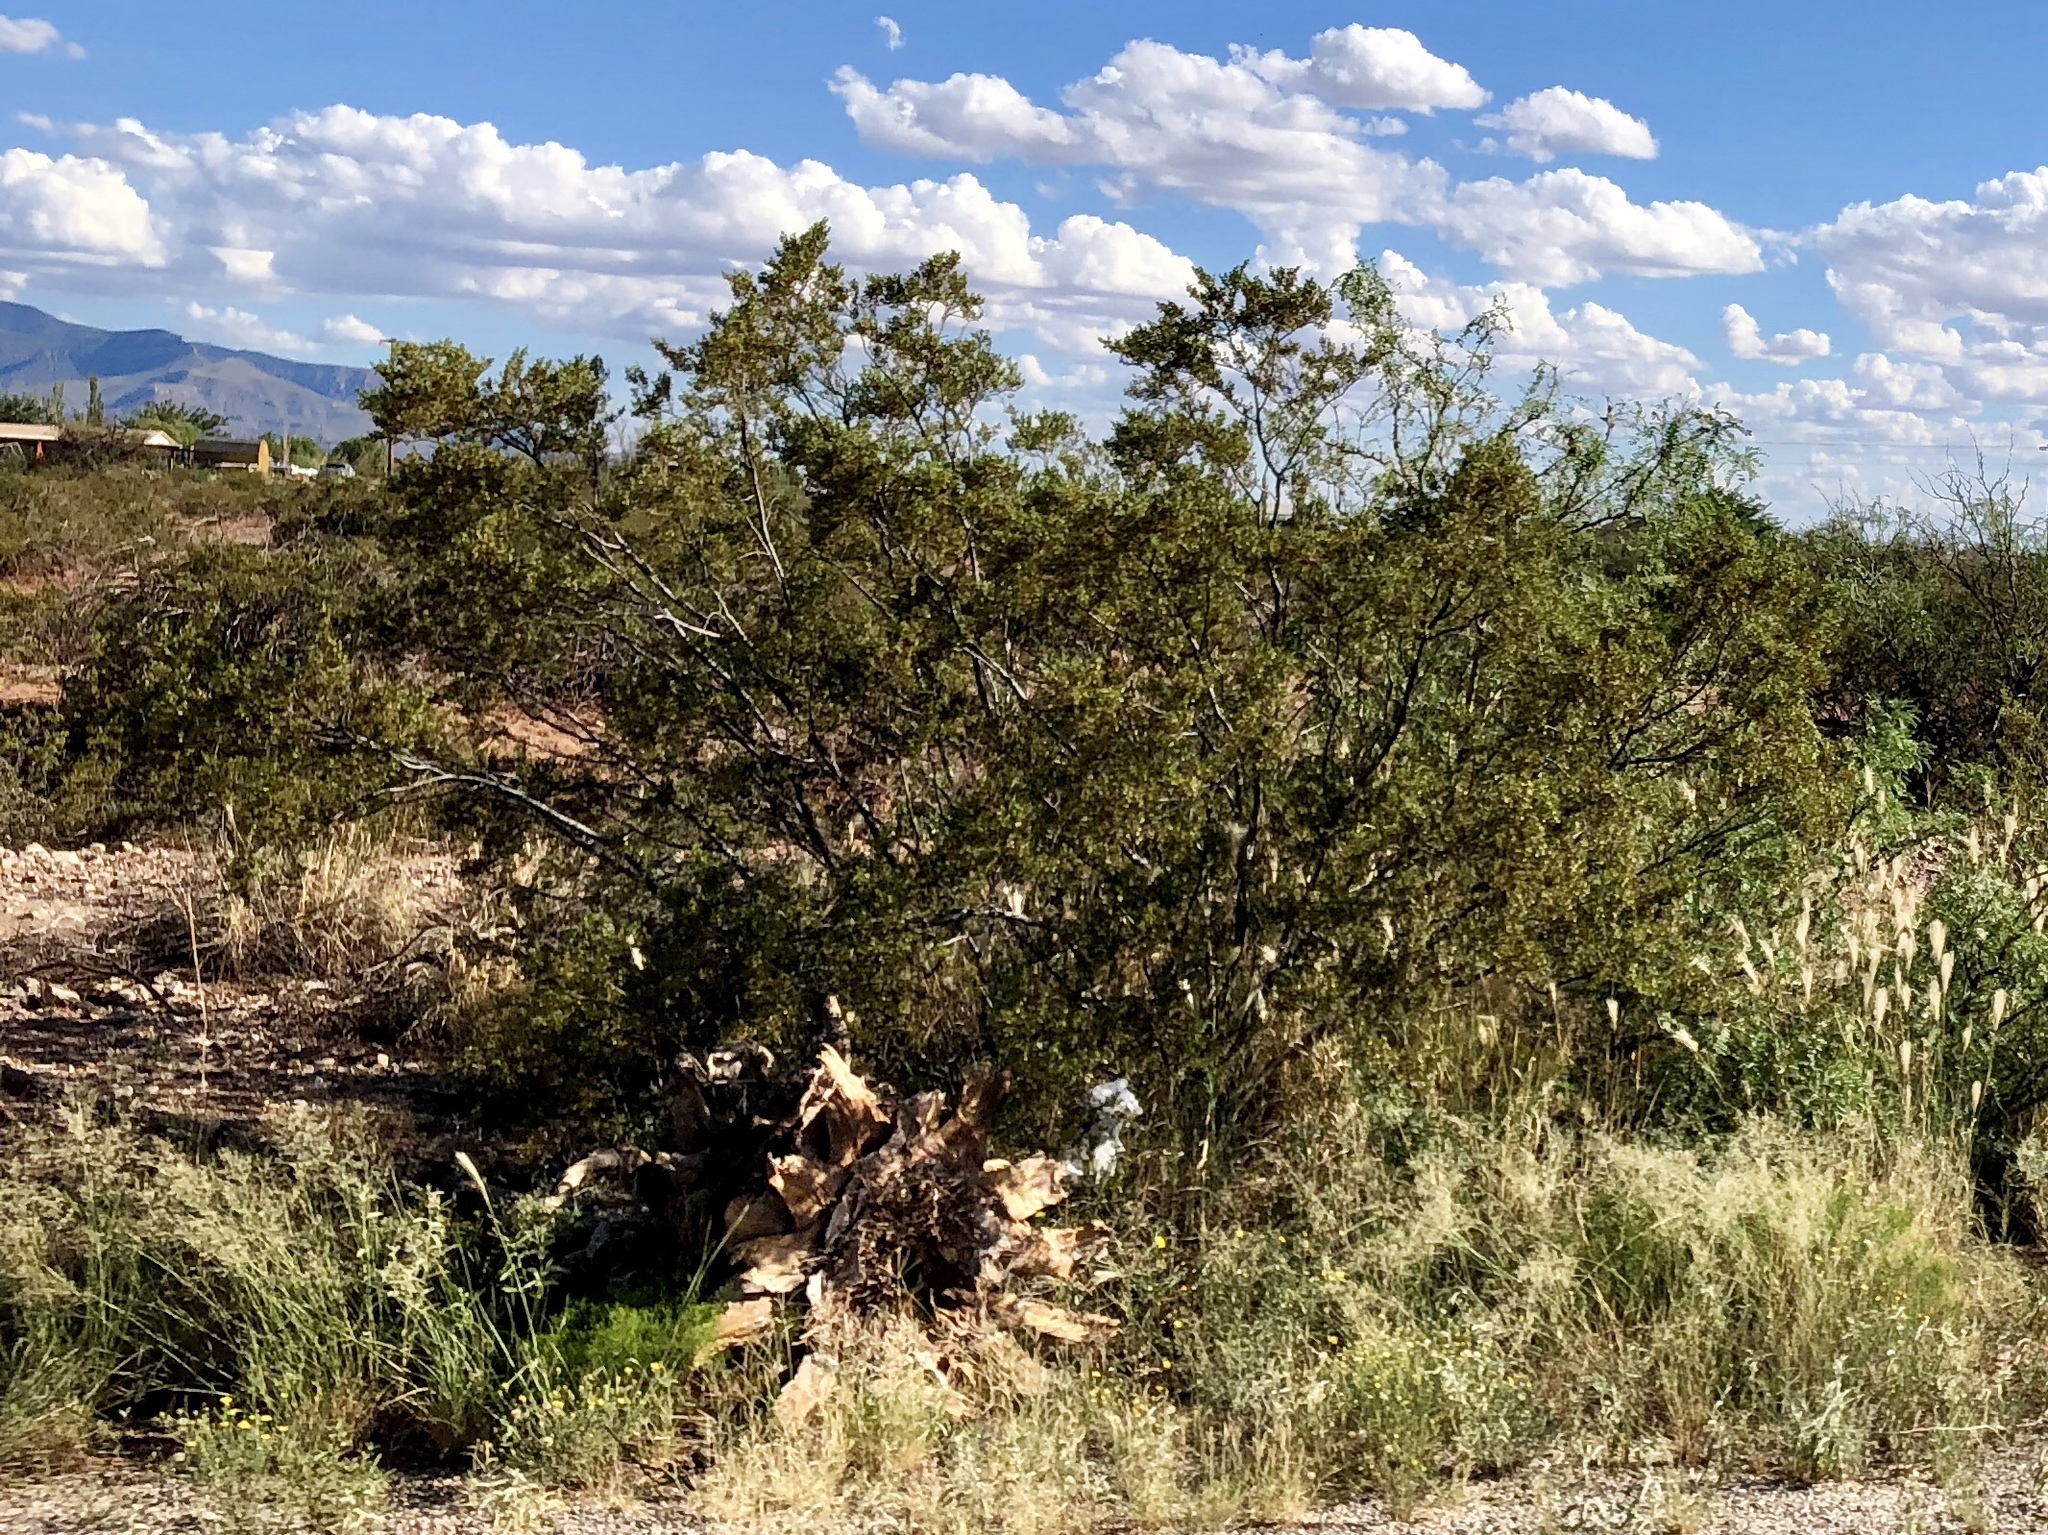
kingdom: Plantae
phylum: Tracheophyta
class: Magnoliopsida
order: Zygophyllales
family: Zygophyllaceae
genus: Larrea
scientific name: Larrea tridentata
